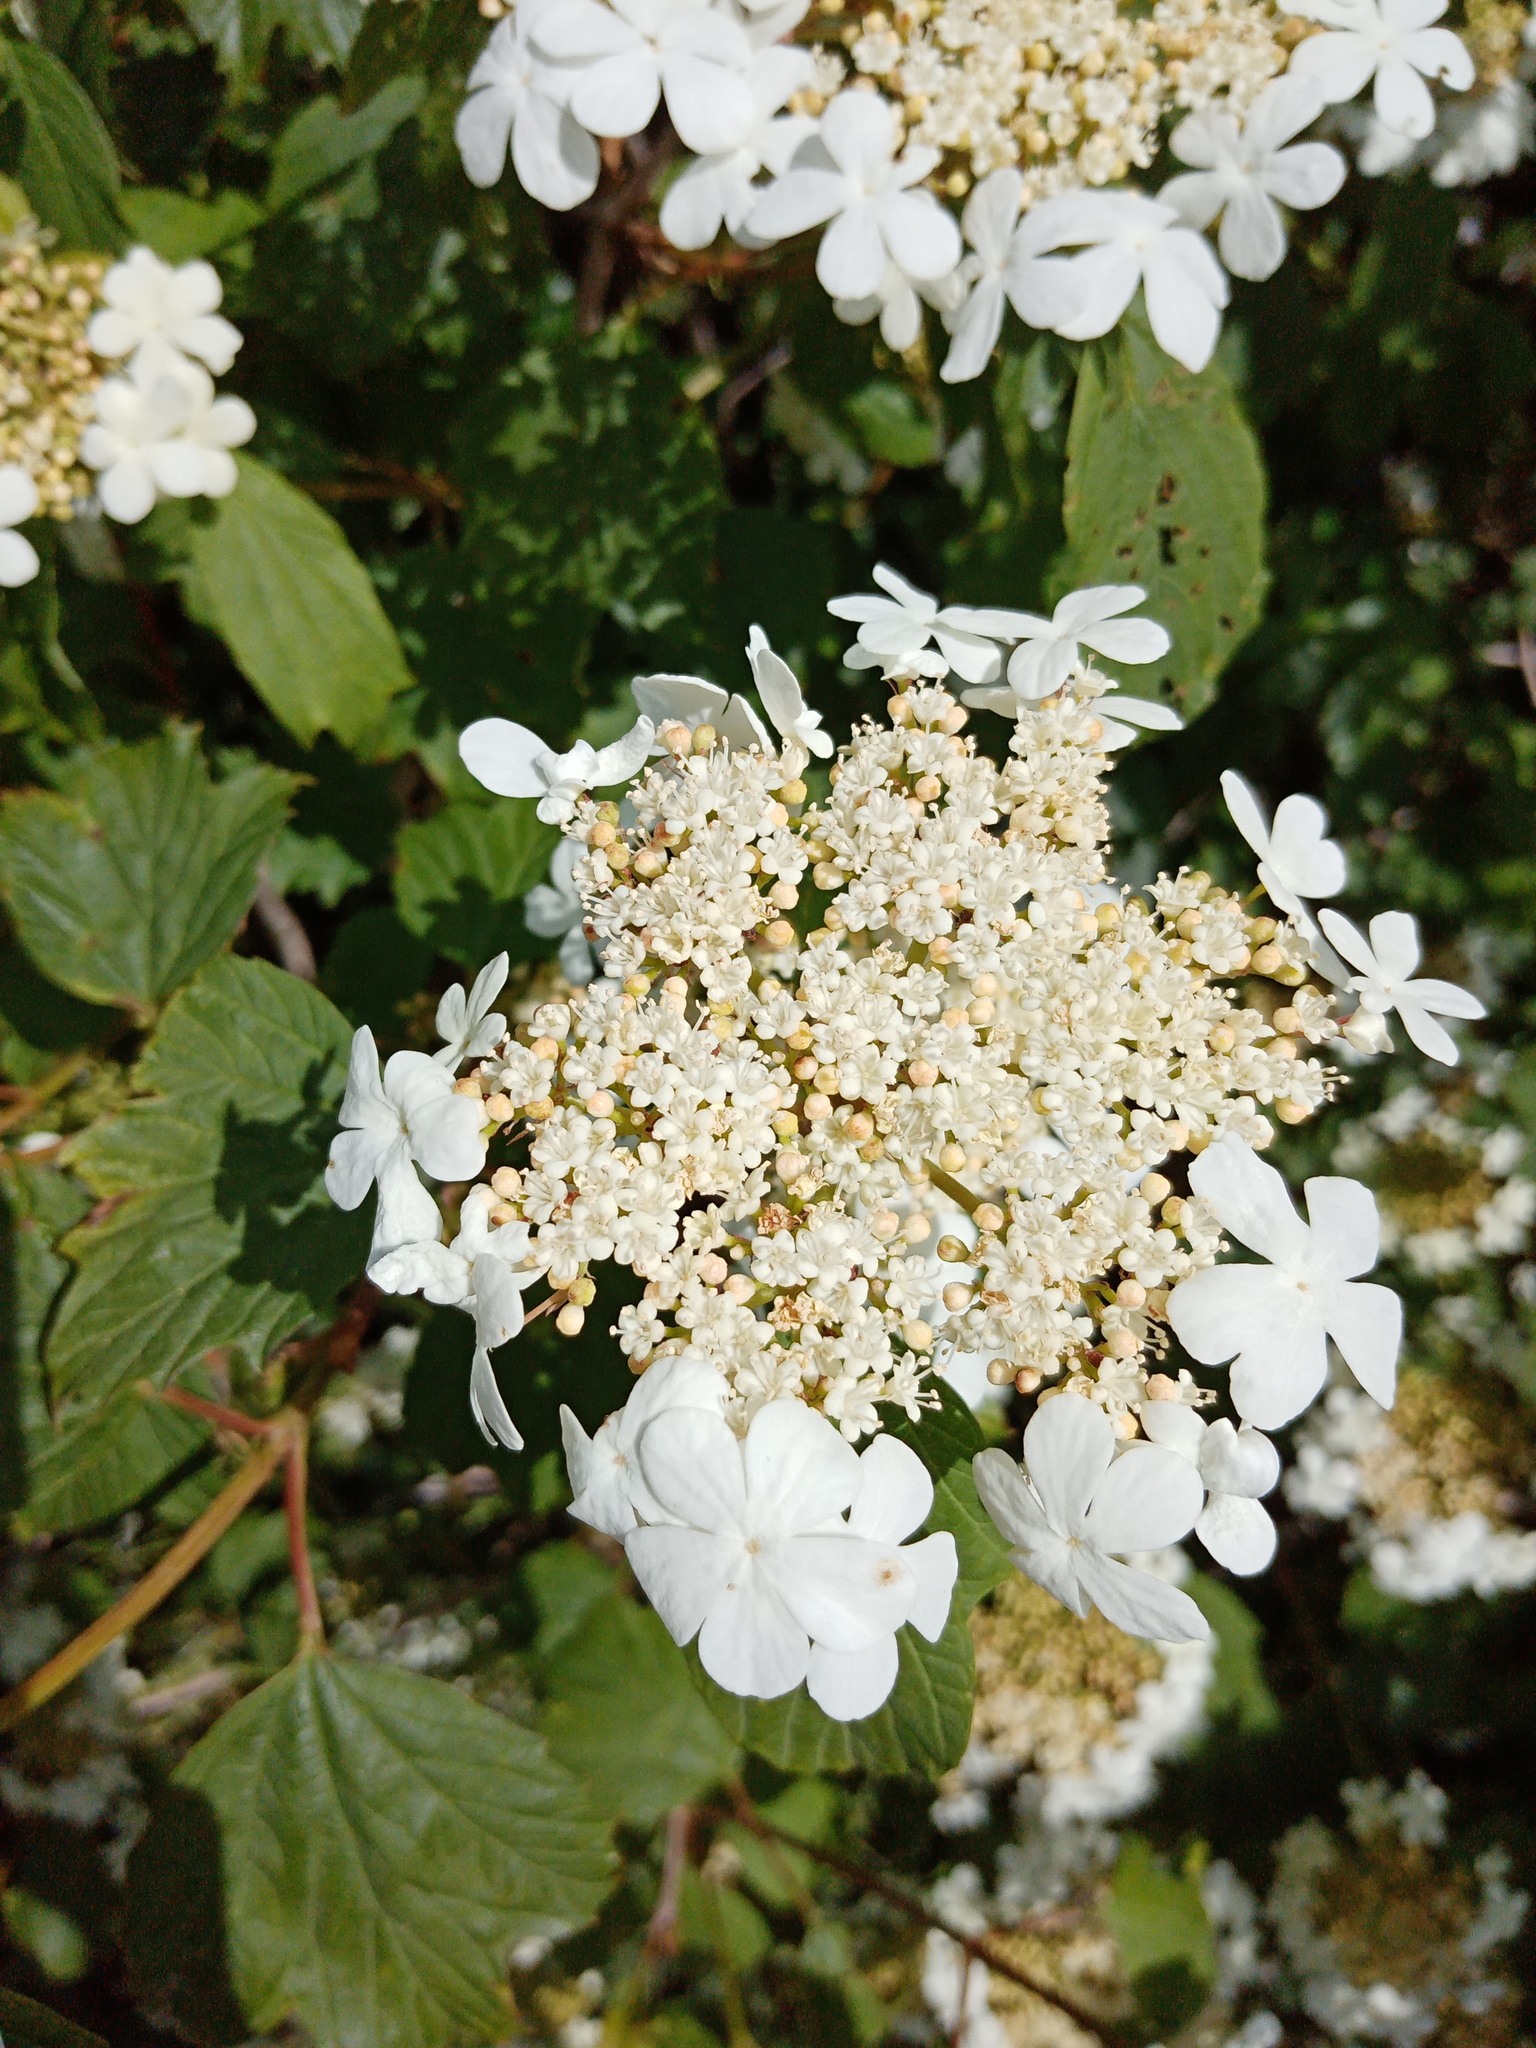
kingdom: Plantae
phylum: Tracheophyta
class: Magnoliopsida
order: Dipsacales
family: Viburnaceae
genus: Viburnum
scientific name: Viburnum opulus
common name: Guelder-rose
